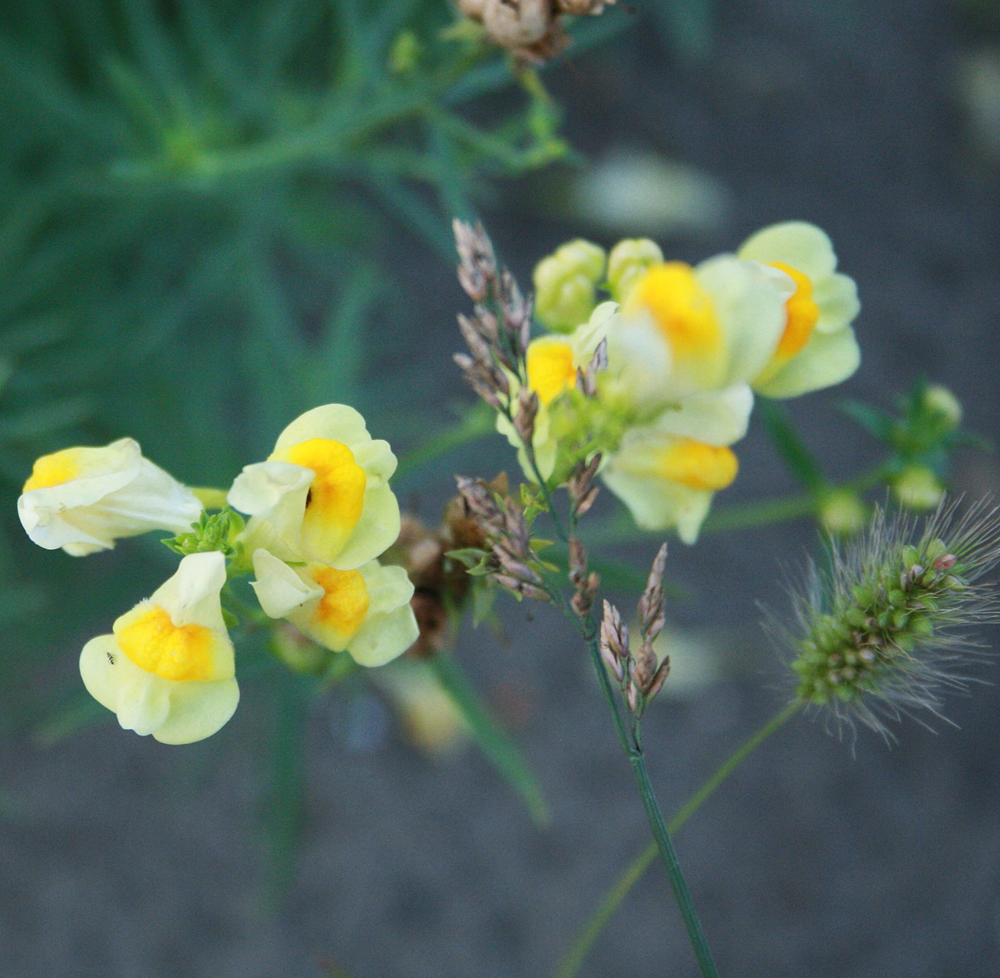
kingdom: Plantae
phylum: Tracheophyta
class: Magnoliopsida
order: Lamiales
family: Plantaginaceae
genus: Linaria
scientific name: Linaria vulgaris
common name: Butter and eggs
